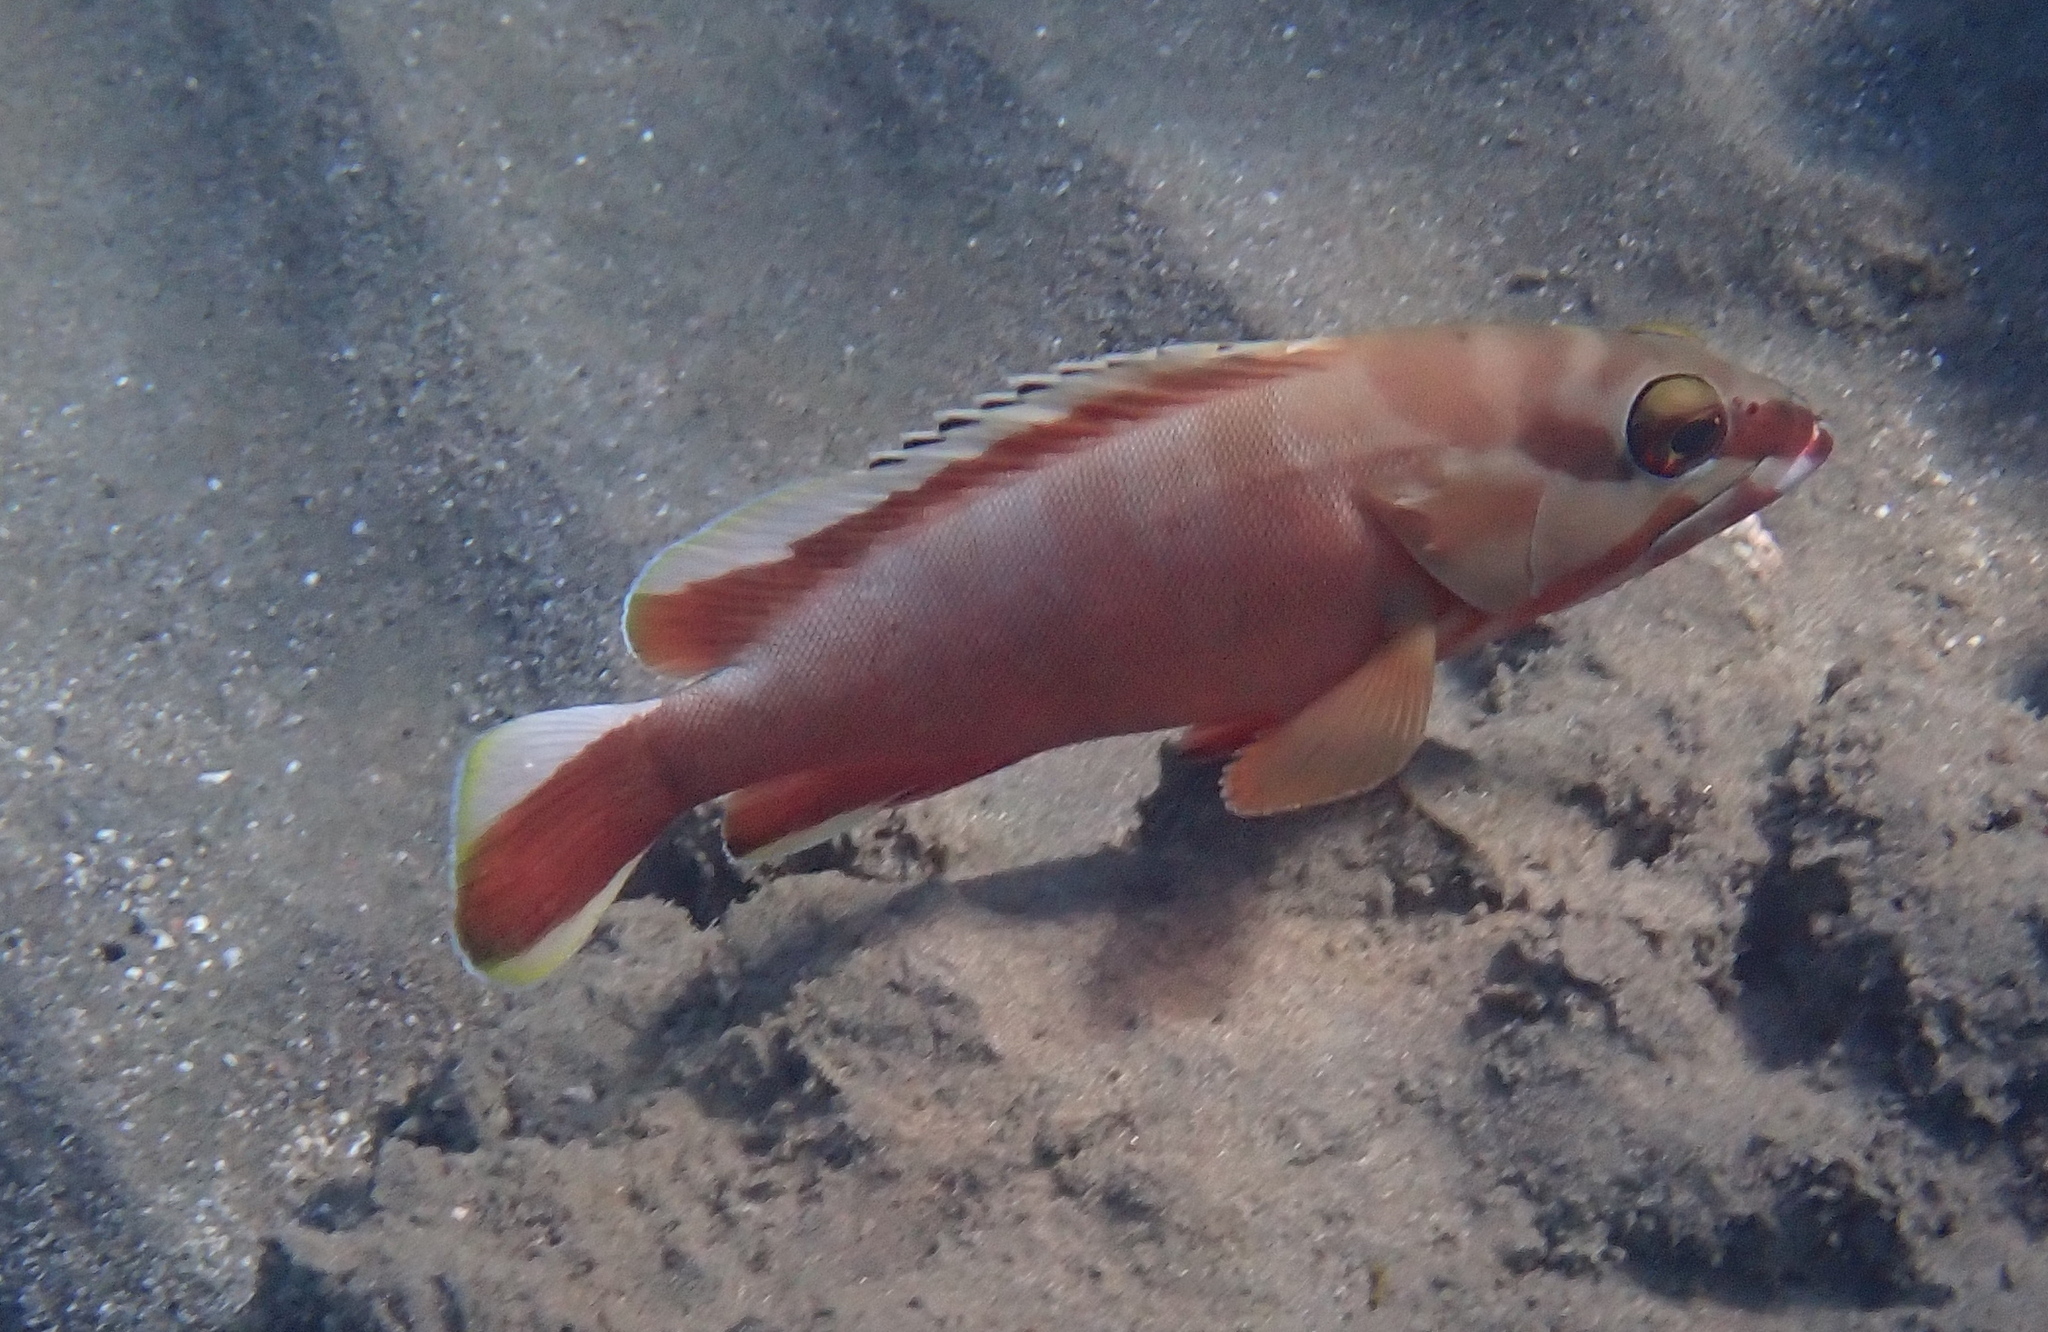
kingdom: Animalia
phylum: Chordata
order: Perciformes
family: Serranidae
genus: Epinephelus
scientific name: Epinephelus fasciatus
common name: Blacktip grouper
